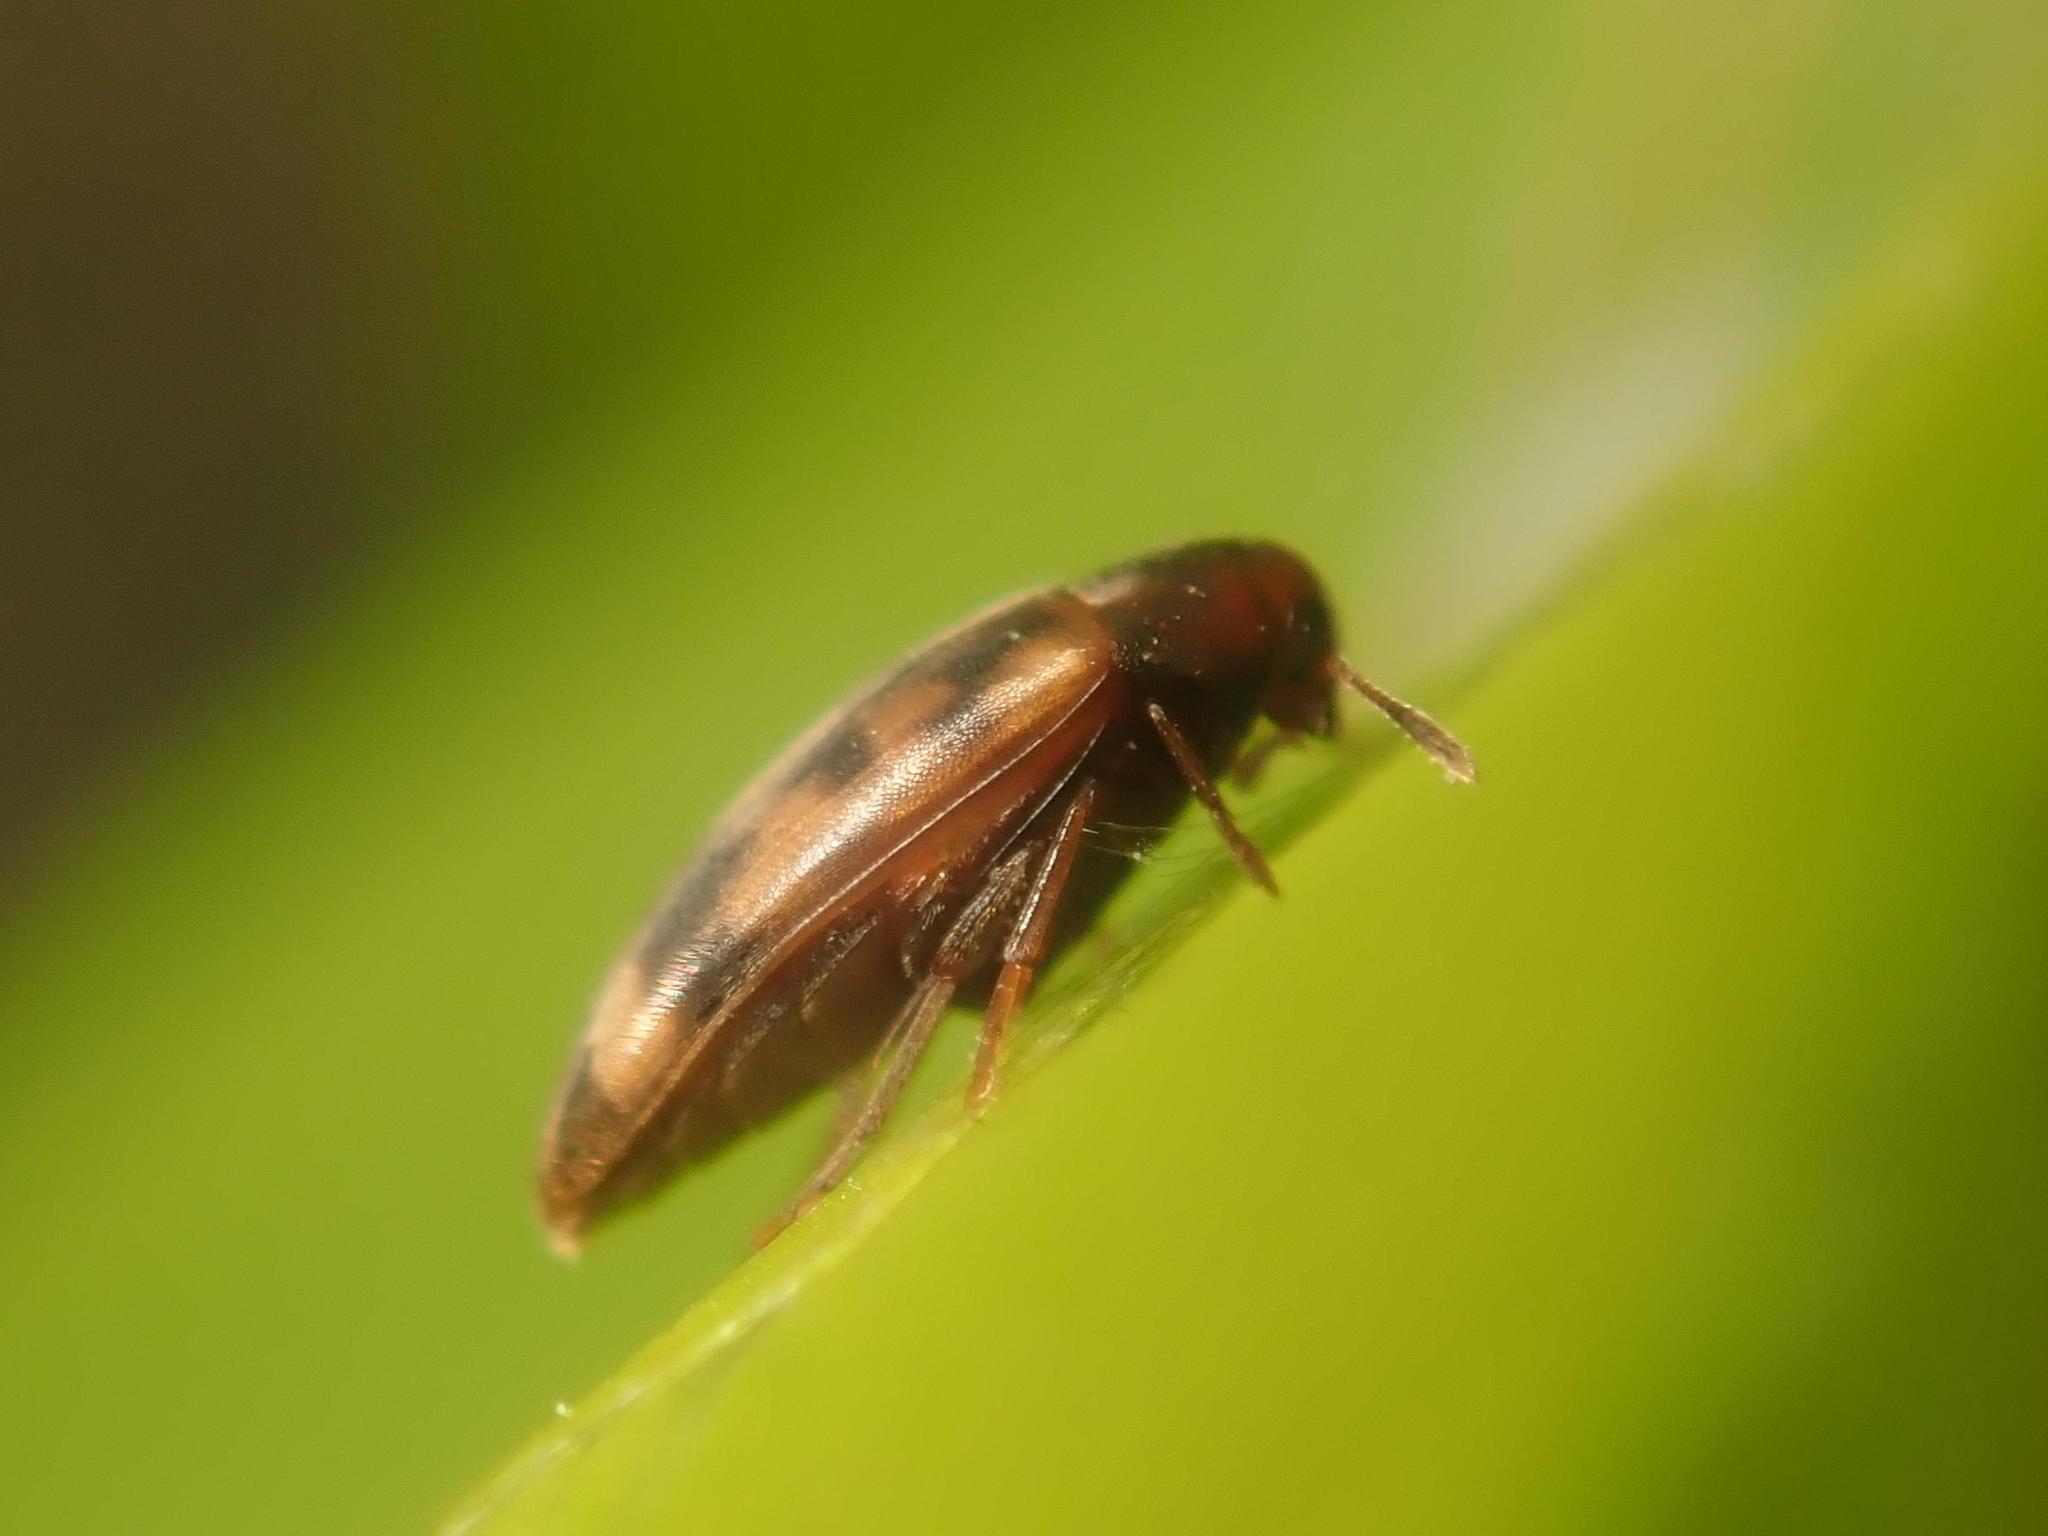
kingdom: Animalia
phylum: Arthropoda
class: Insecta
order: Coleoptera
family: Melandryidae
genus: Orchesia
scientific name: Orchesia undulata
